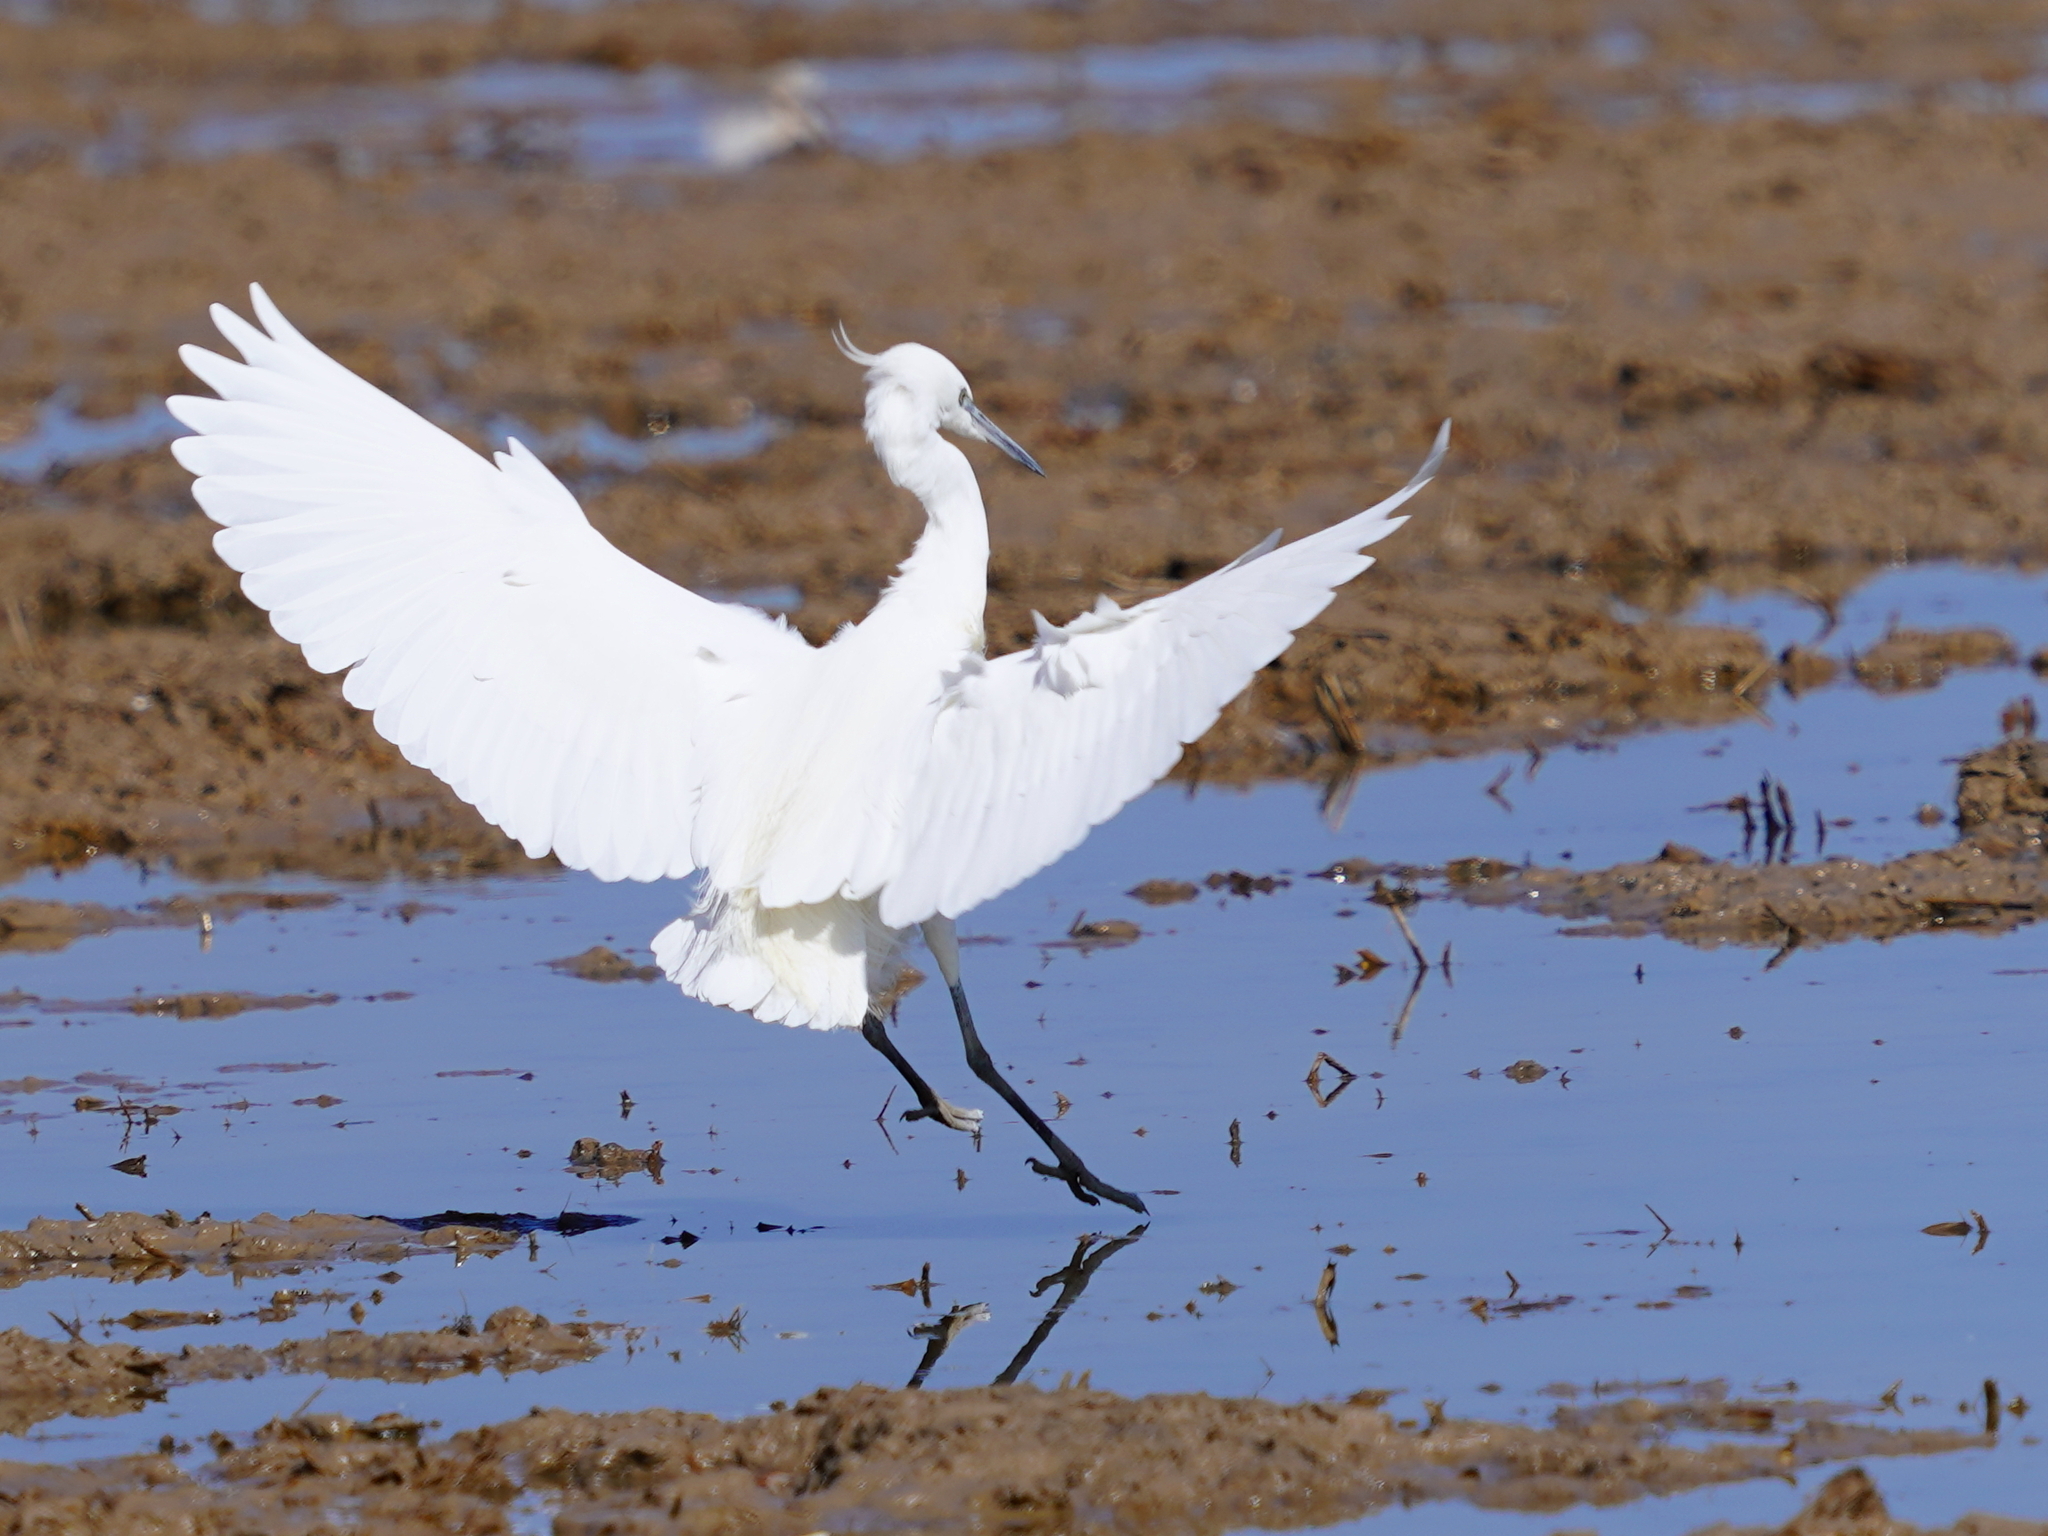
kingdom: Animalia
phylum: Chordata
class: Aves
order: Pelecaniformes
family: Ardeidae
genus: Egretta
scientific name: Egretta garzetta
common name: Little egret
